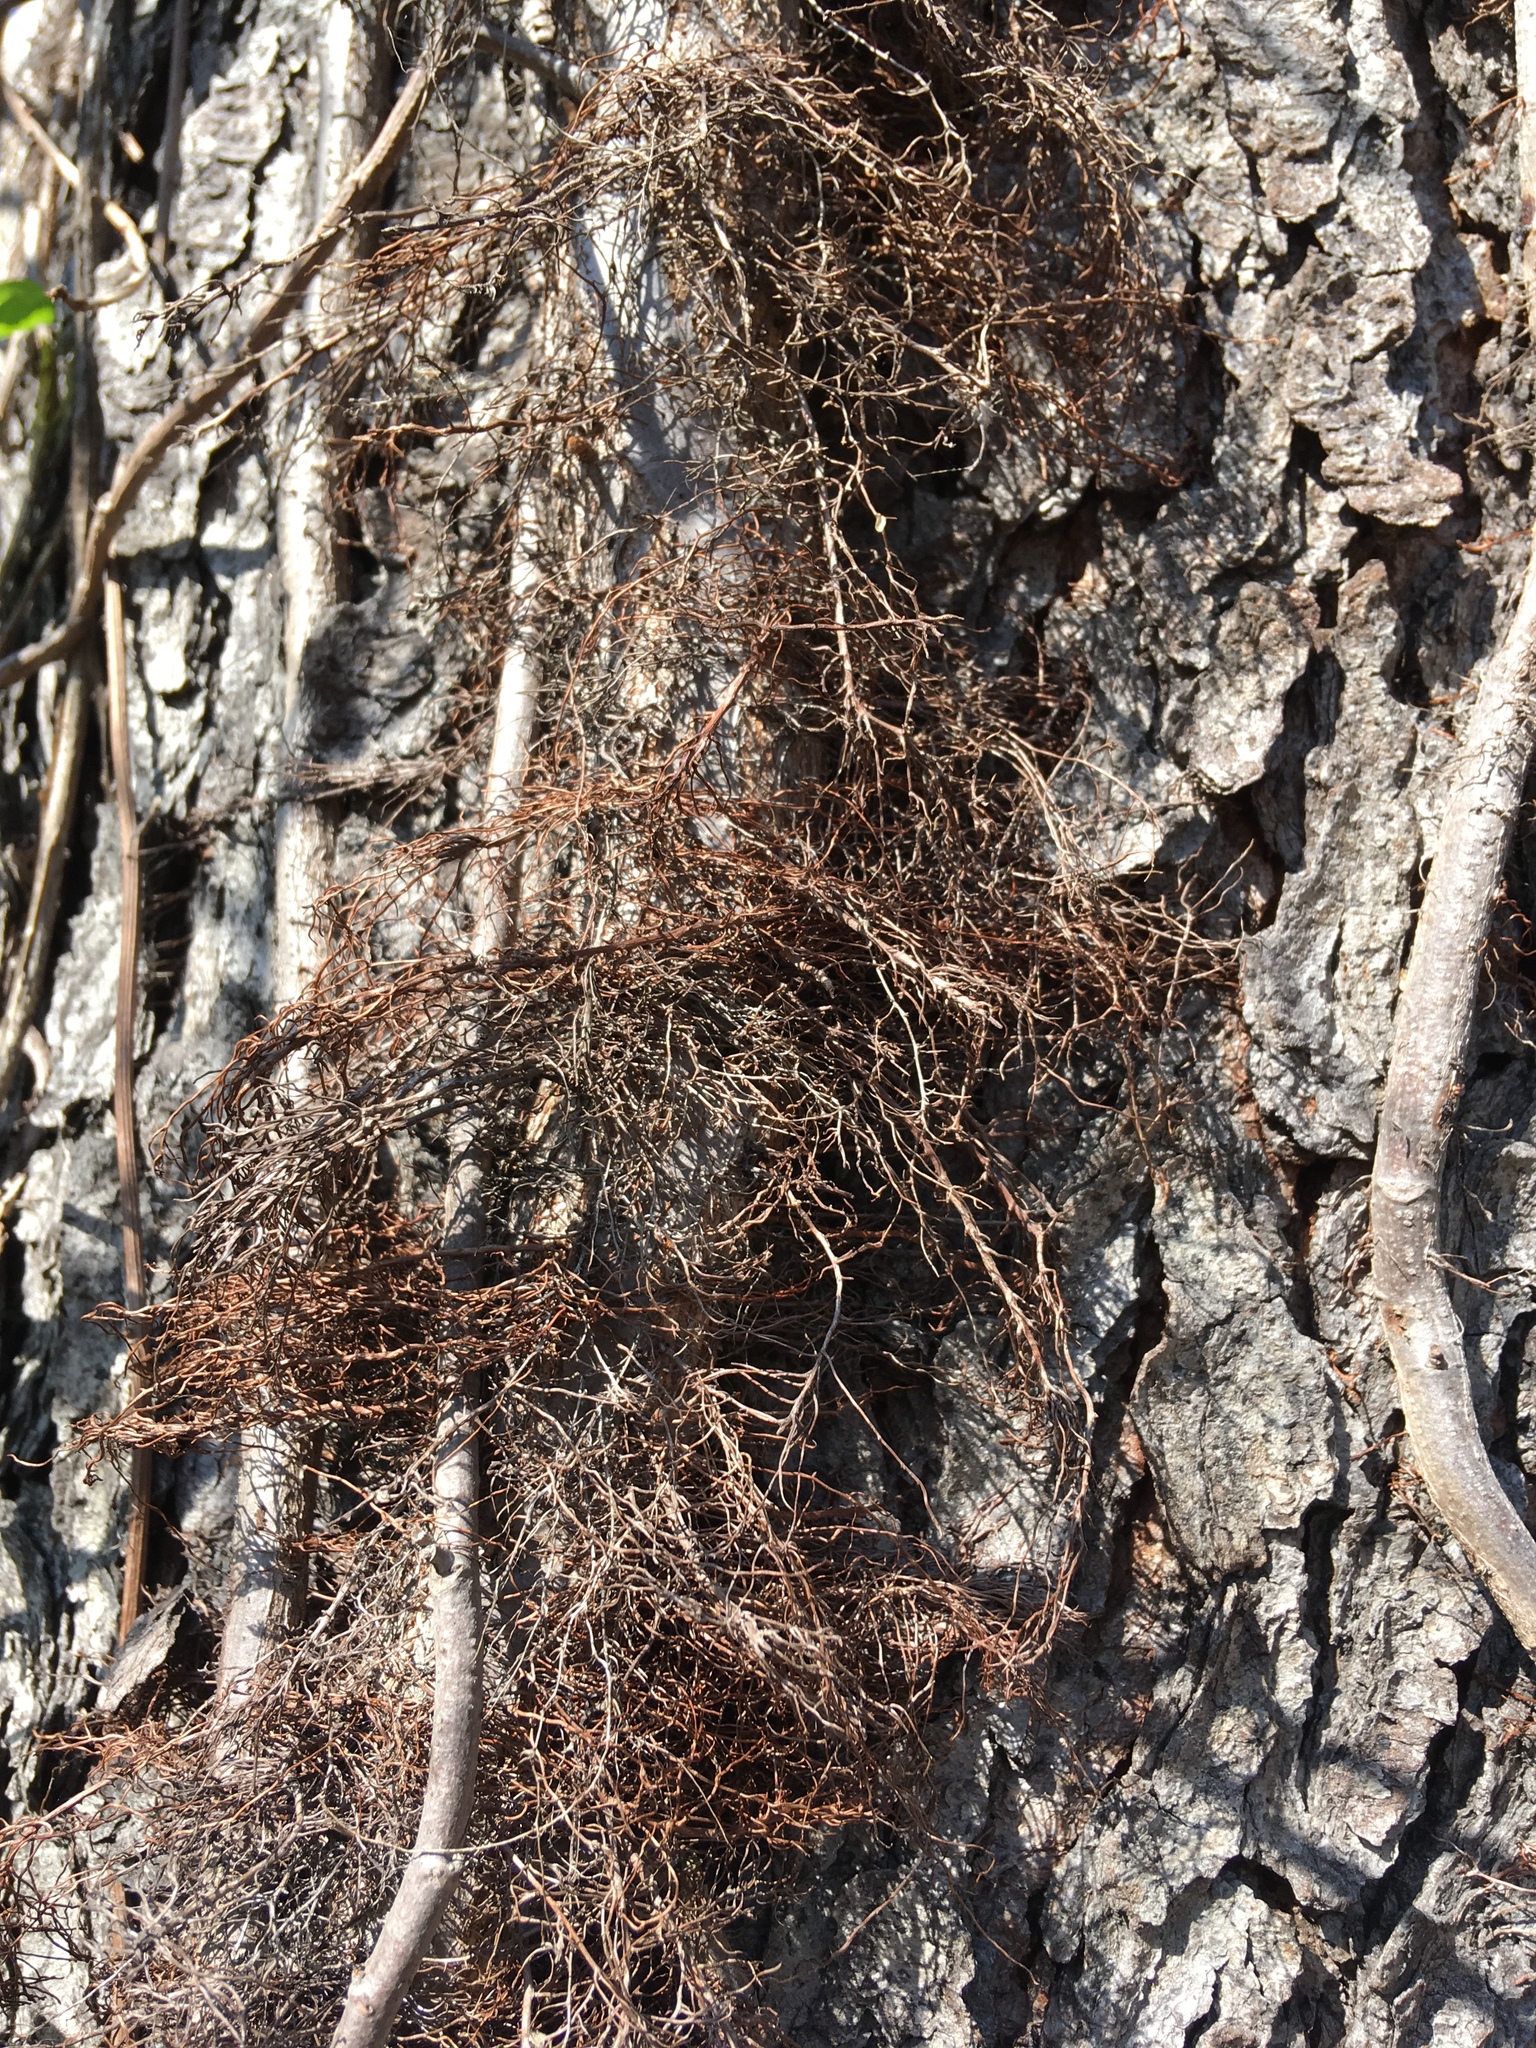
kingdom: Plantae
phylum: Tracheophyta
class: Magnoliopsida
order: Sapindales
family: Anacardiaceae
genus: Toxicodendron
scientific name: Toxicodendron radicans
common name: Poison ivy
